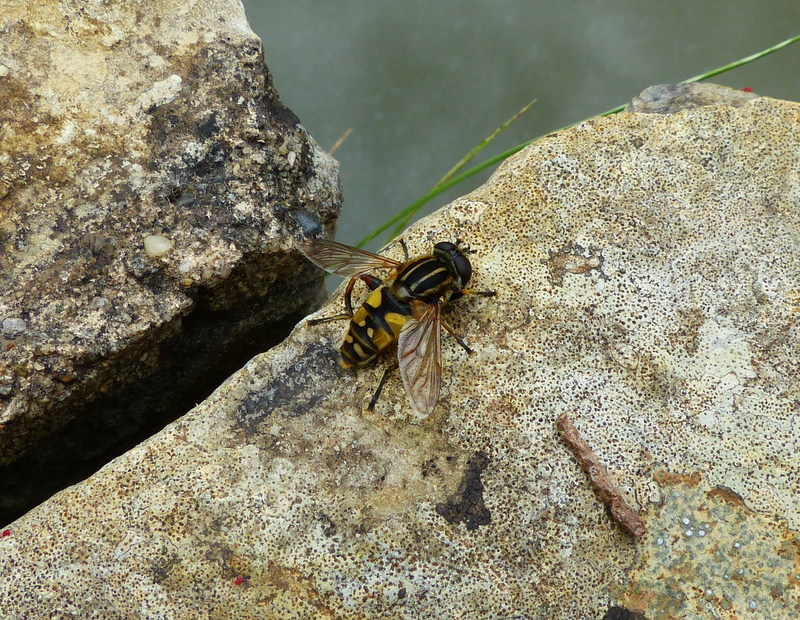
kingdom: Animalia
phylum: Arthropoda
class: Insecta
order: Diptera
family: Syrphidae
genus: Helophilus
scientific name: Helophilus pendulus
